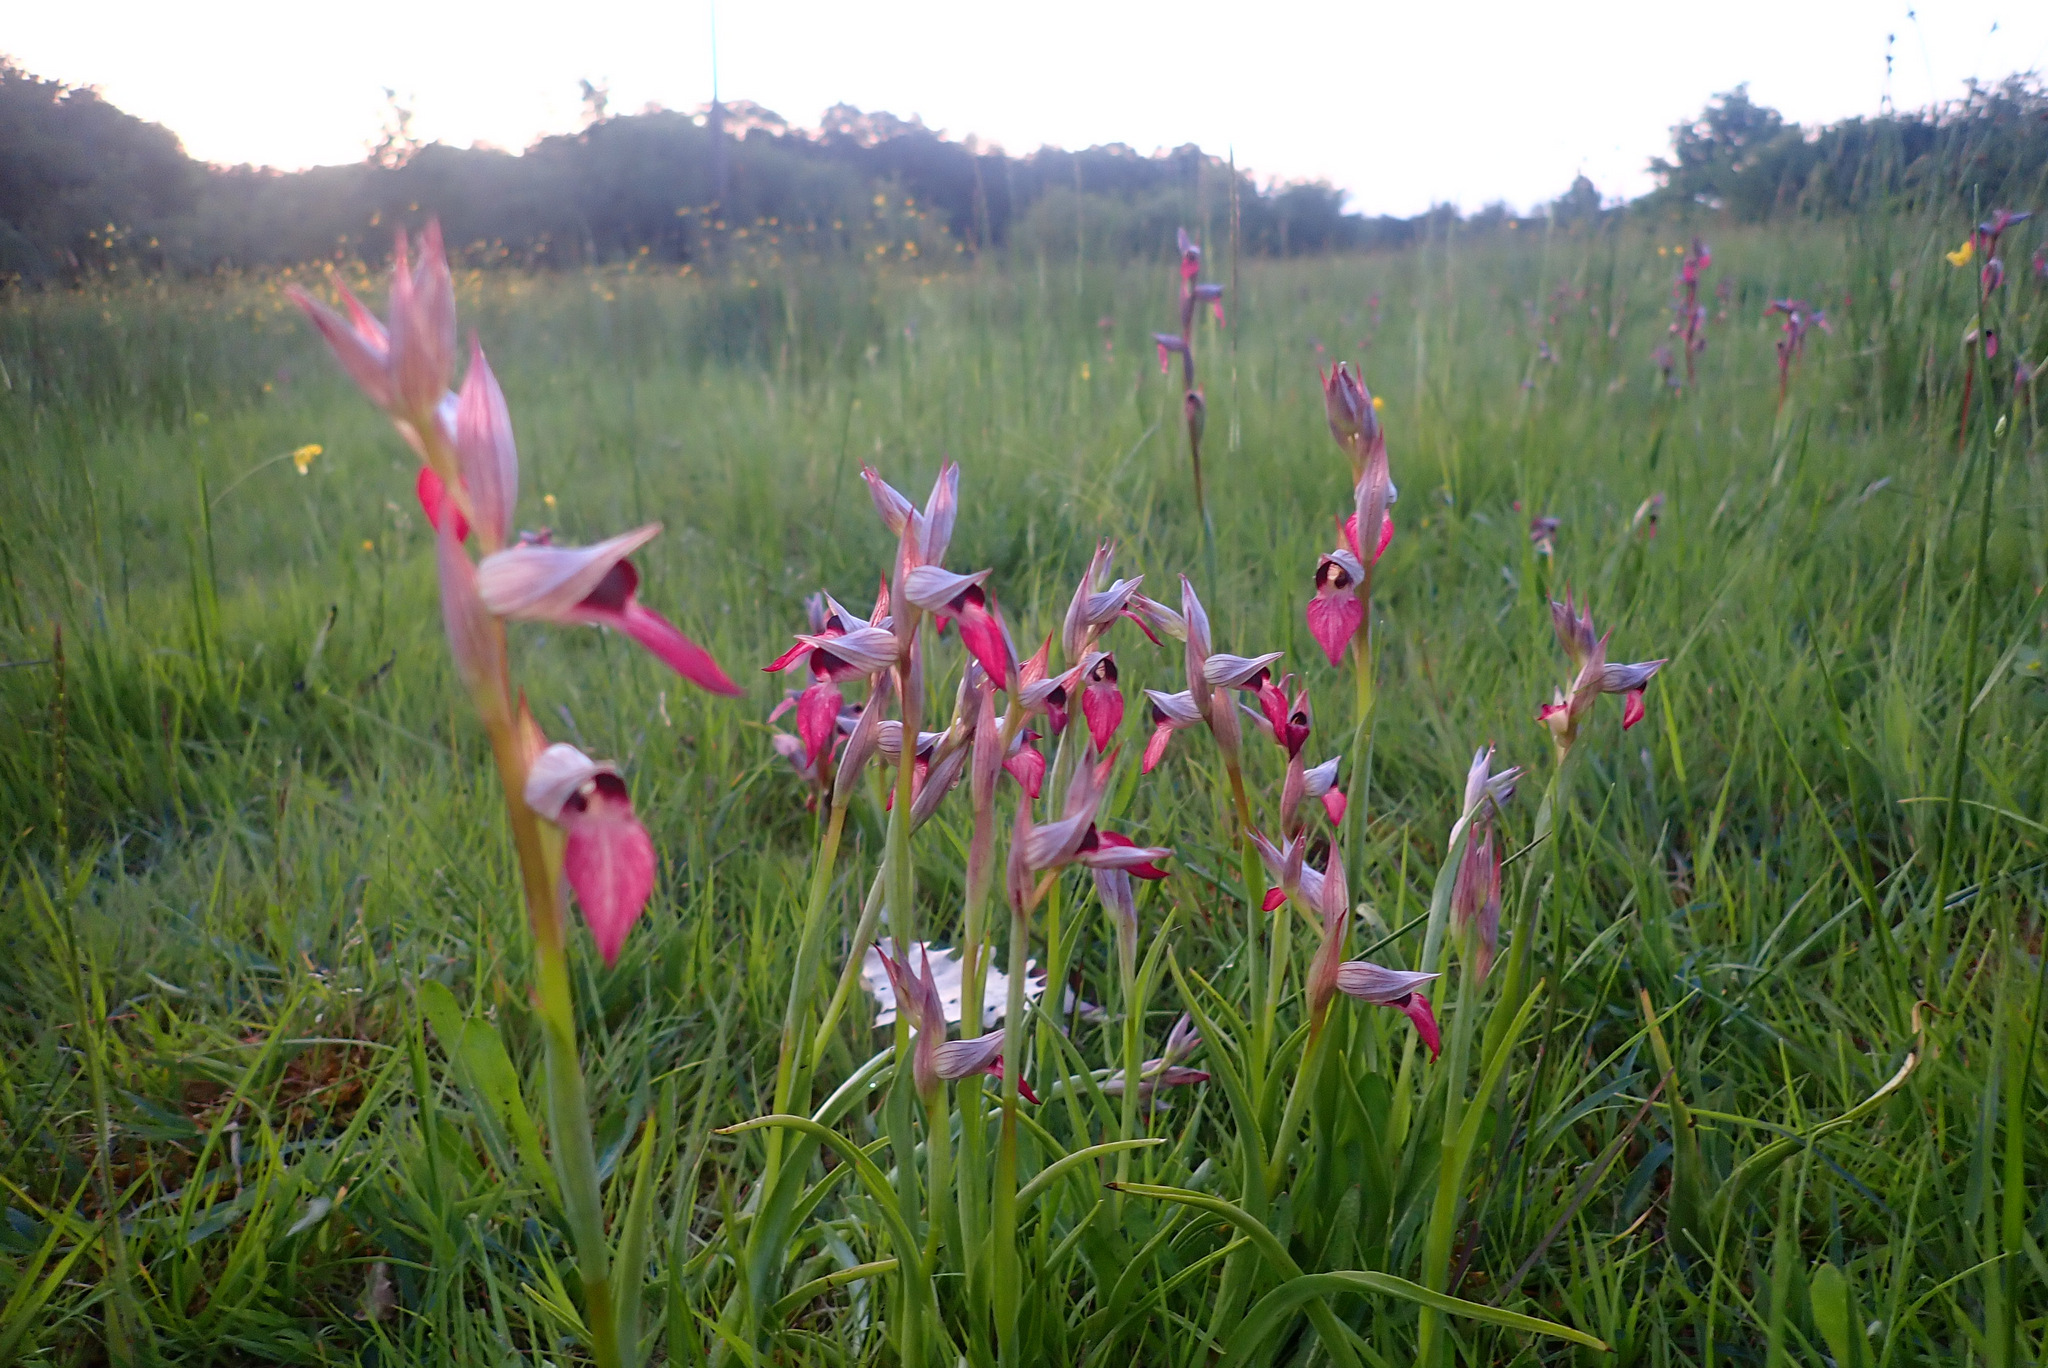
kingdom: Plantae
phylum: Tracheophyta
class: Liliopsida
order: Asparagales
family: Orchidaceae
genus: Serapias
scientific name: Serapias lingua
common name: Tongue-orchid
